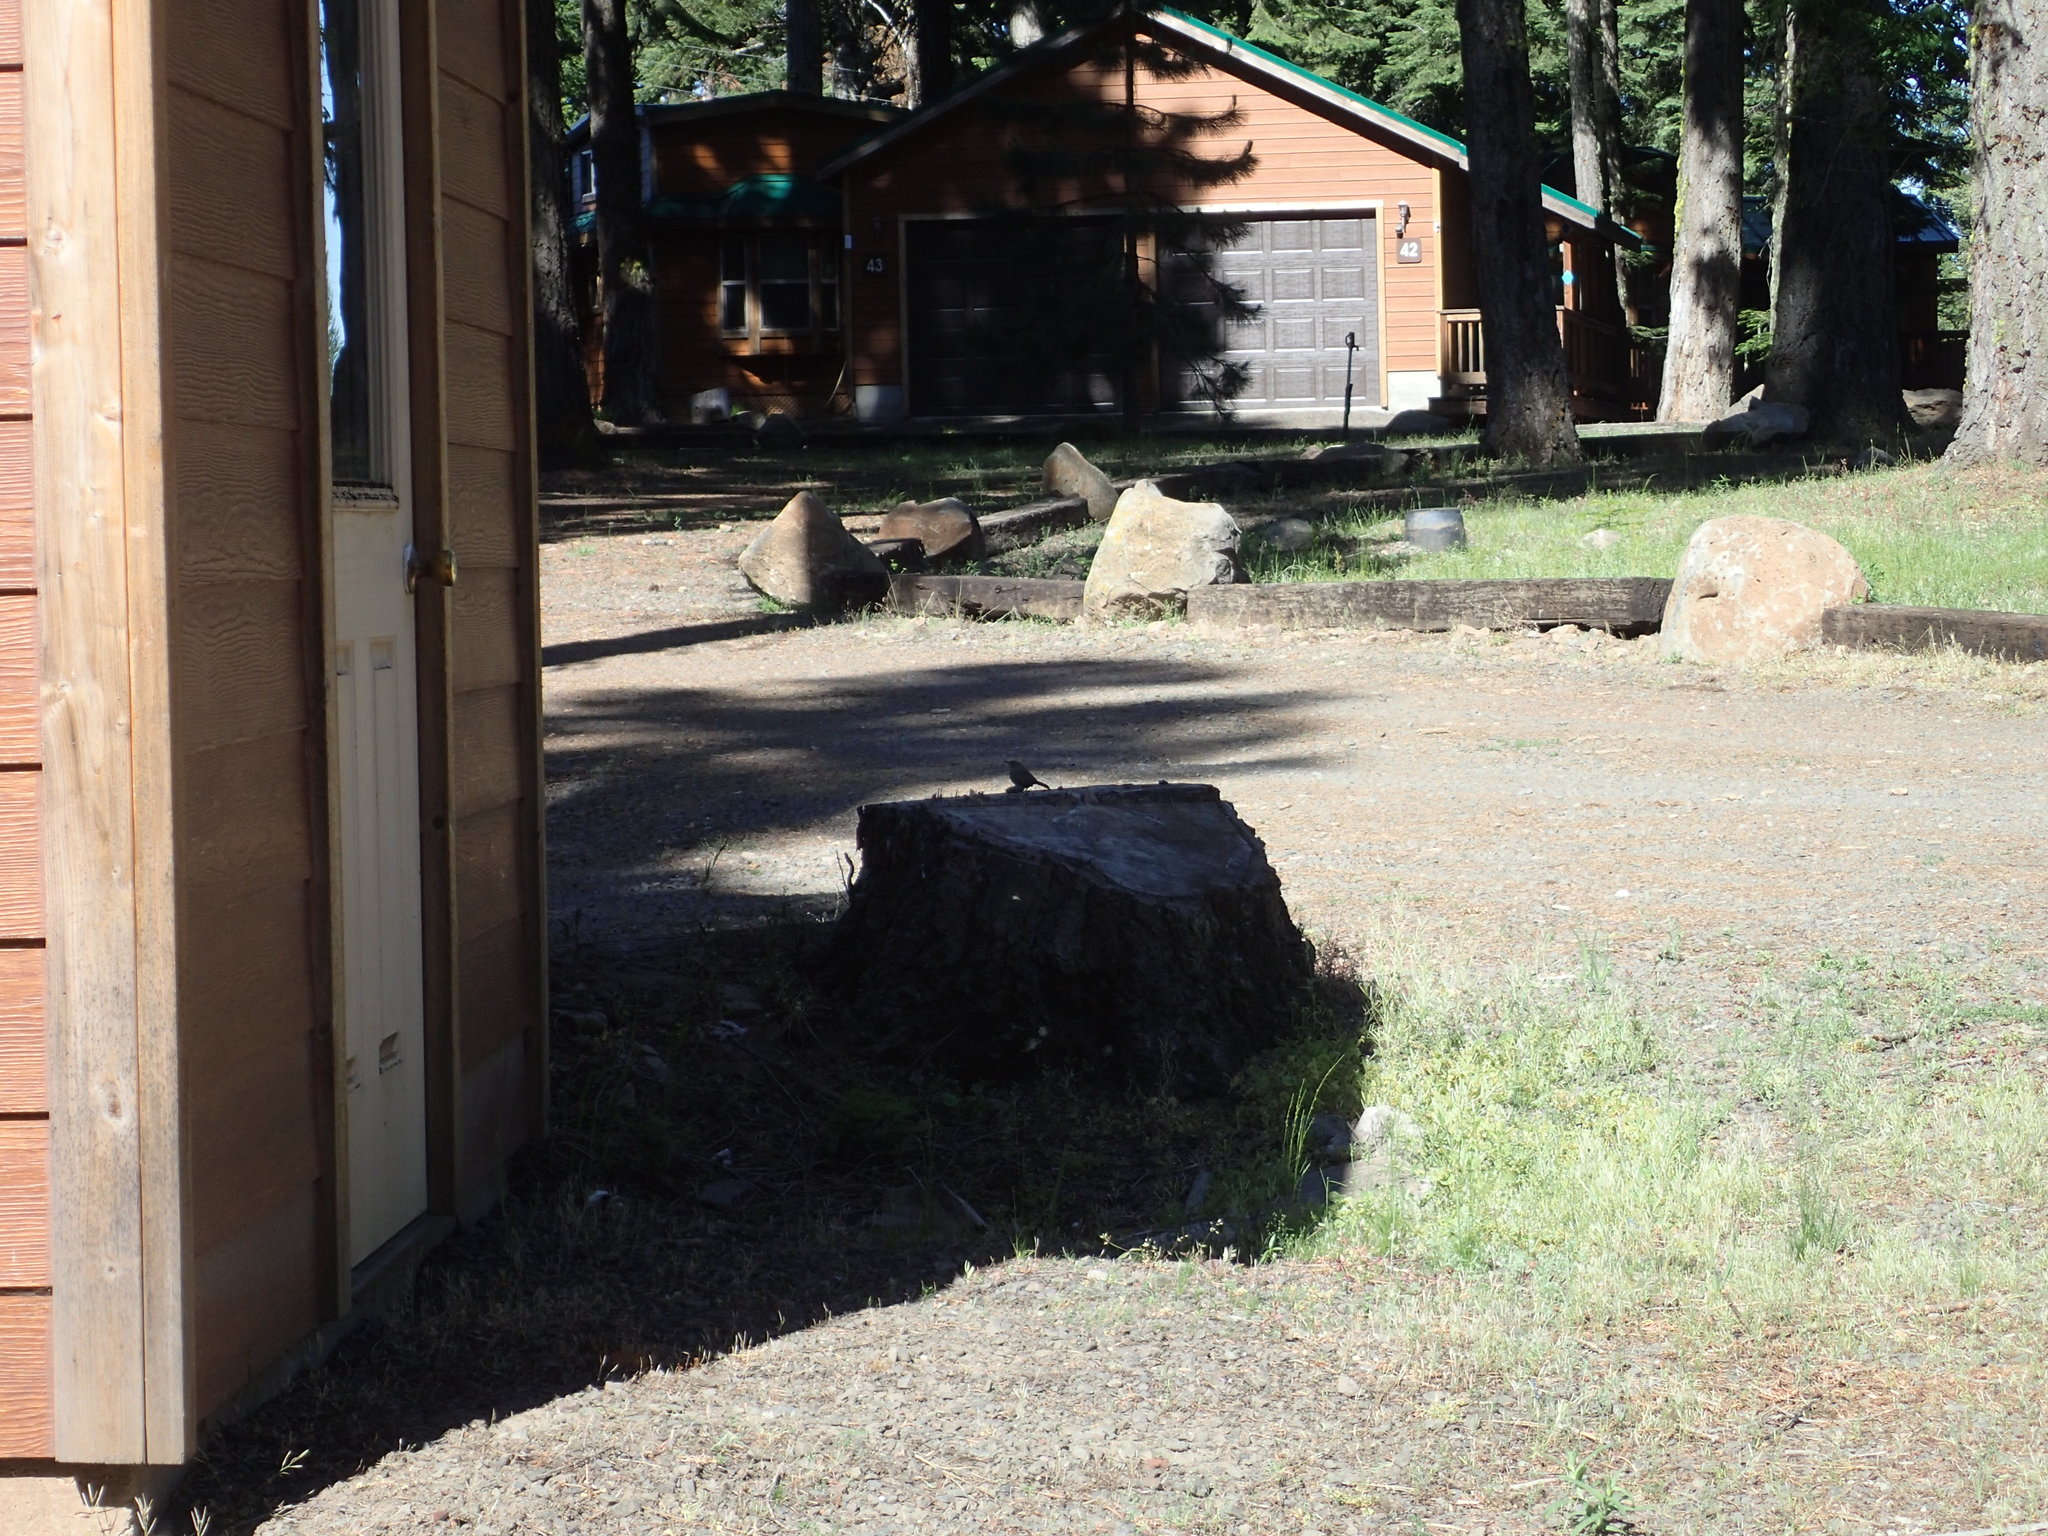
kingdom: Animalia
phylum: Chordata
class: Aves
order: Passeriformes
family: Troglodytidae
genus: Troglodytes
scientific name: Troglodytes aedon
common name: House wren
